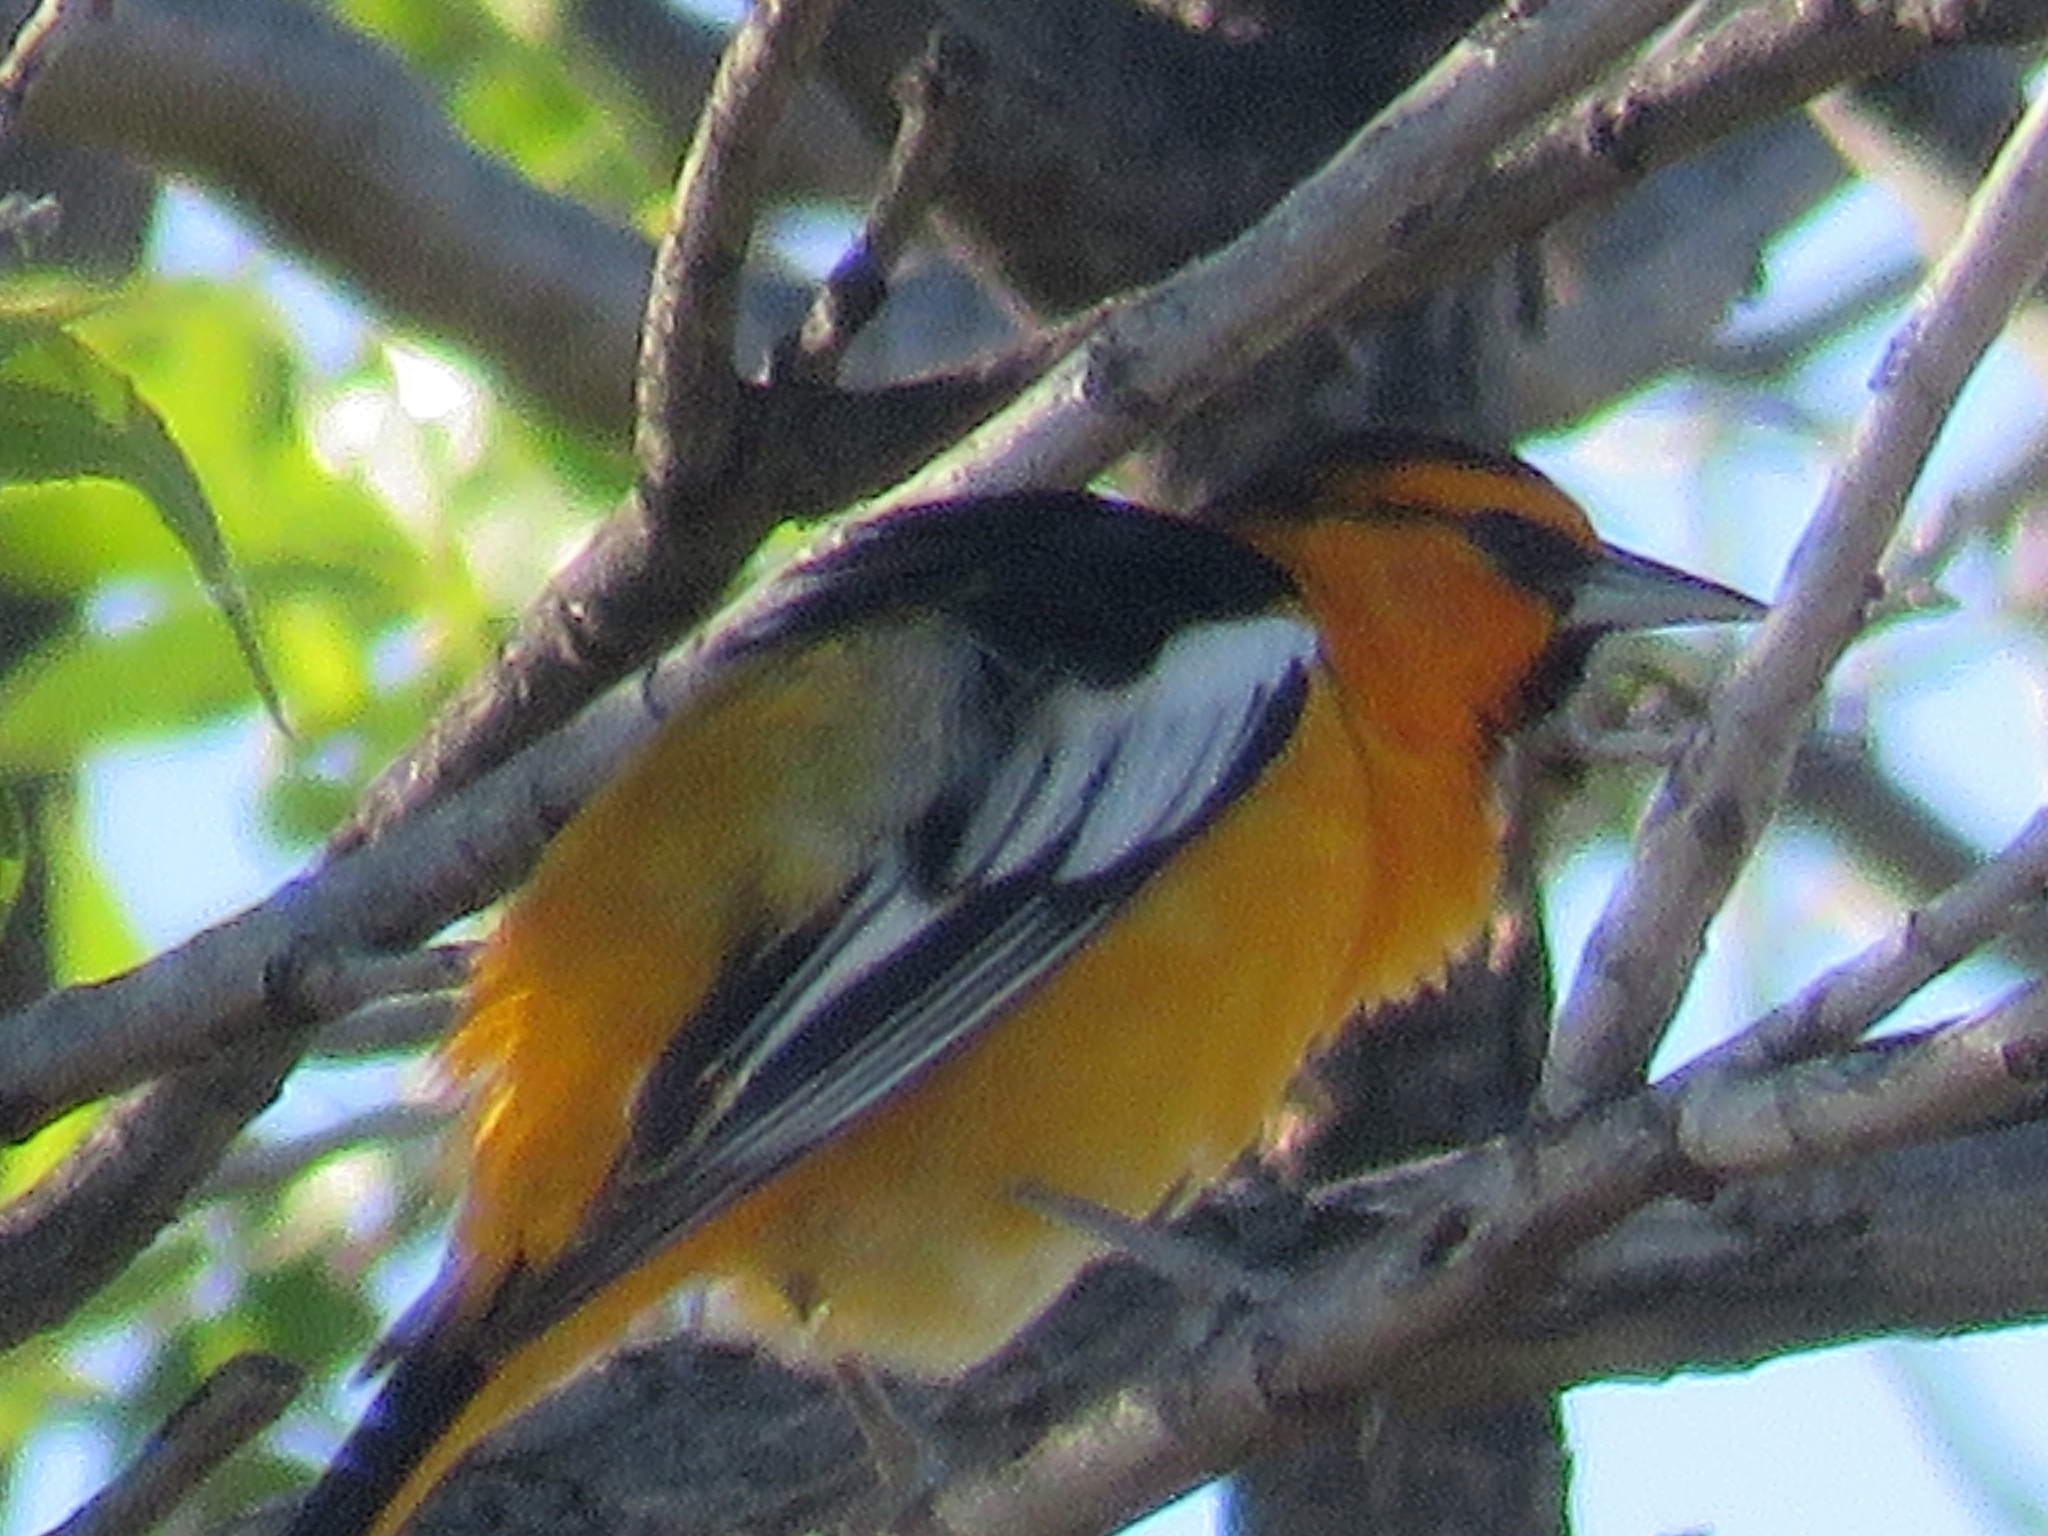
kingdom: Animalia
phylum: Chordata
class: Aves
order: Passeriformes
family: Icteridae
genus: Icterus
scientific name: Icterus bullockii
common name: Bullock's oriole
